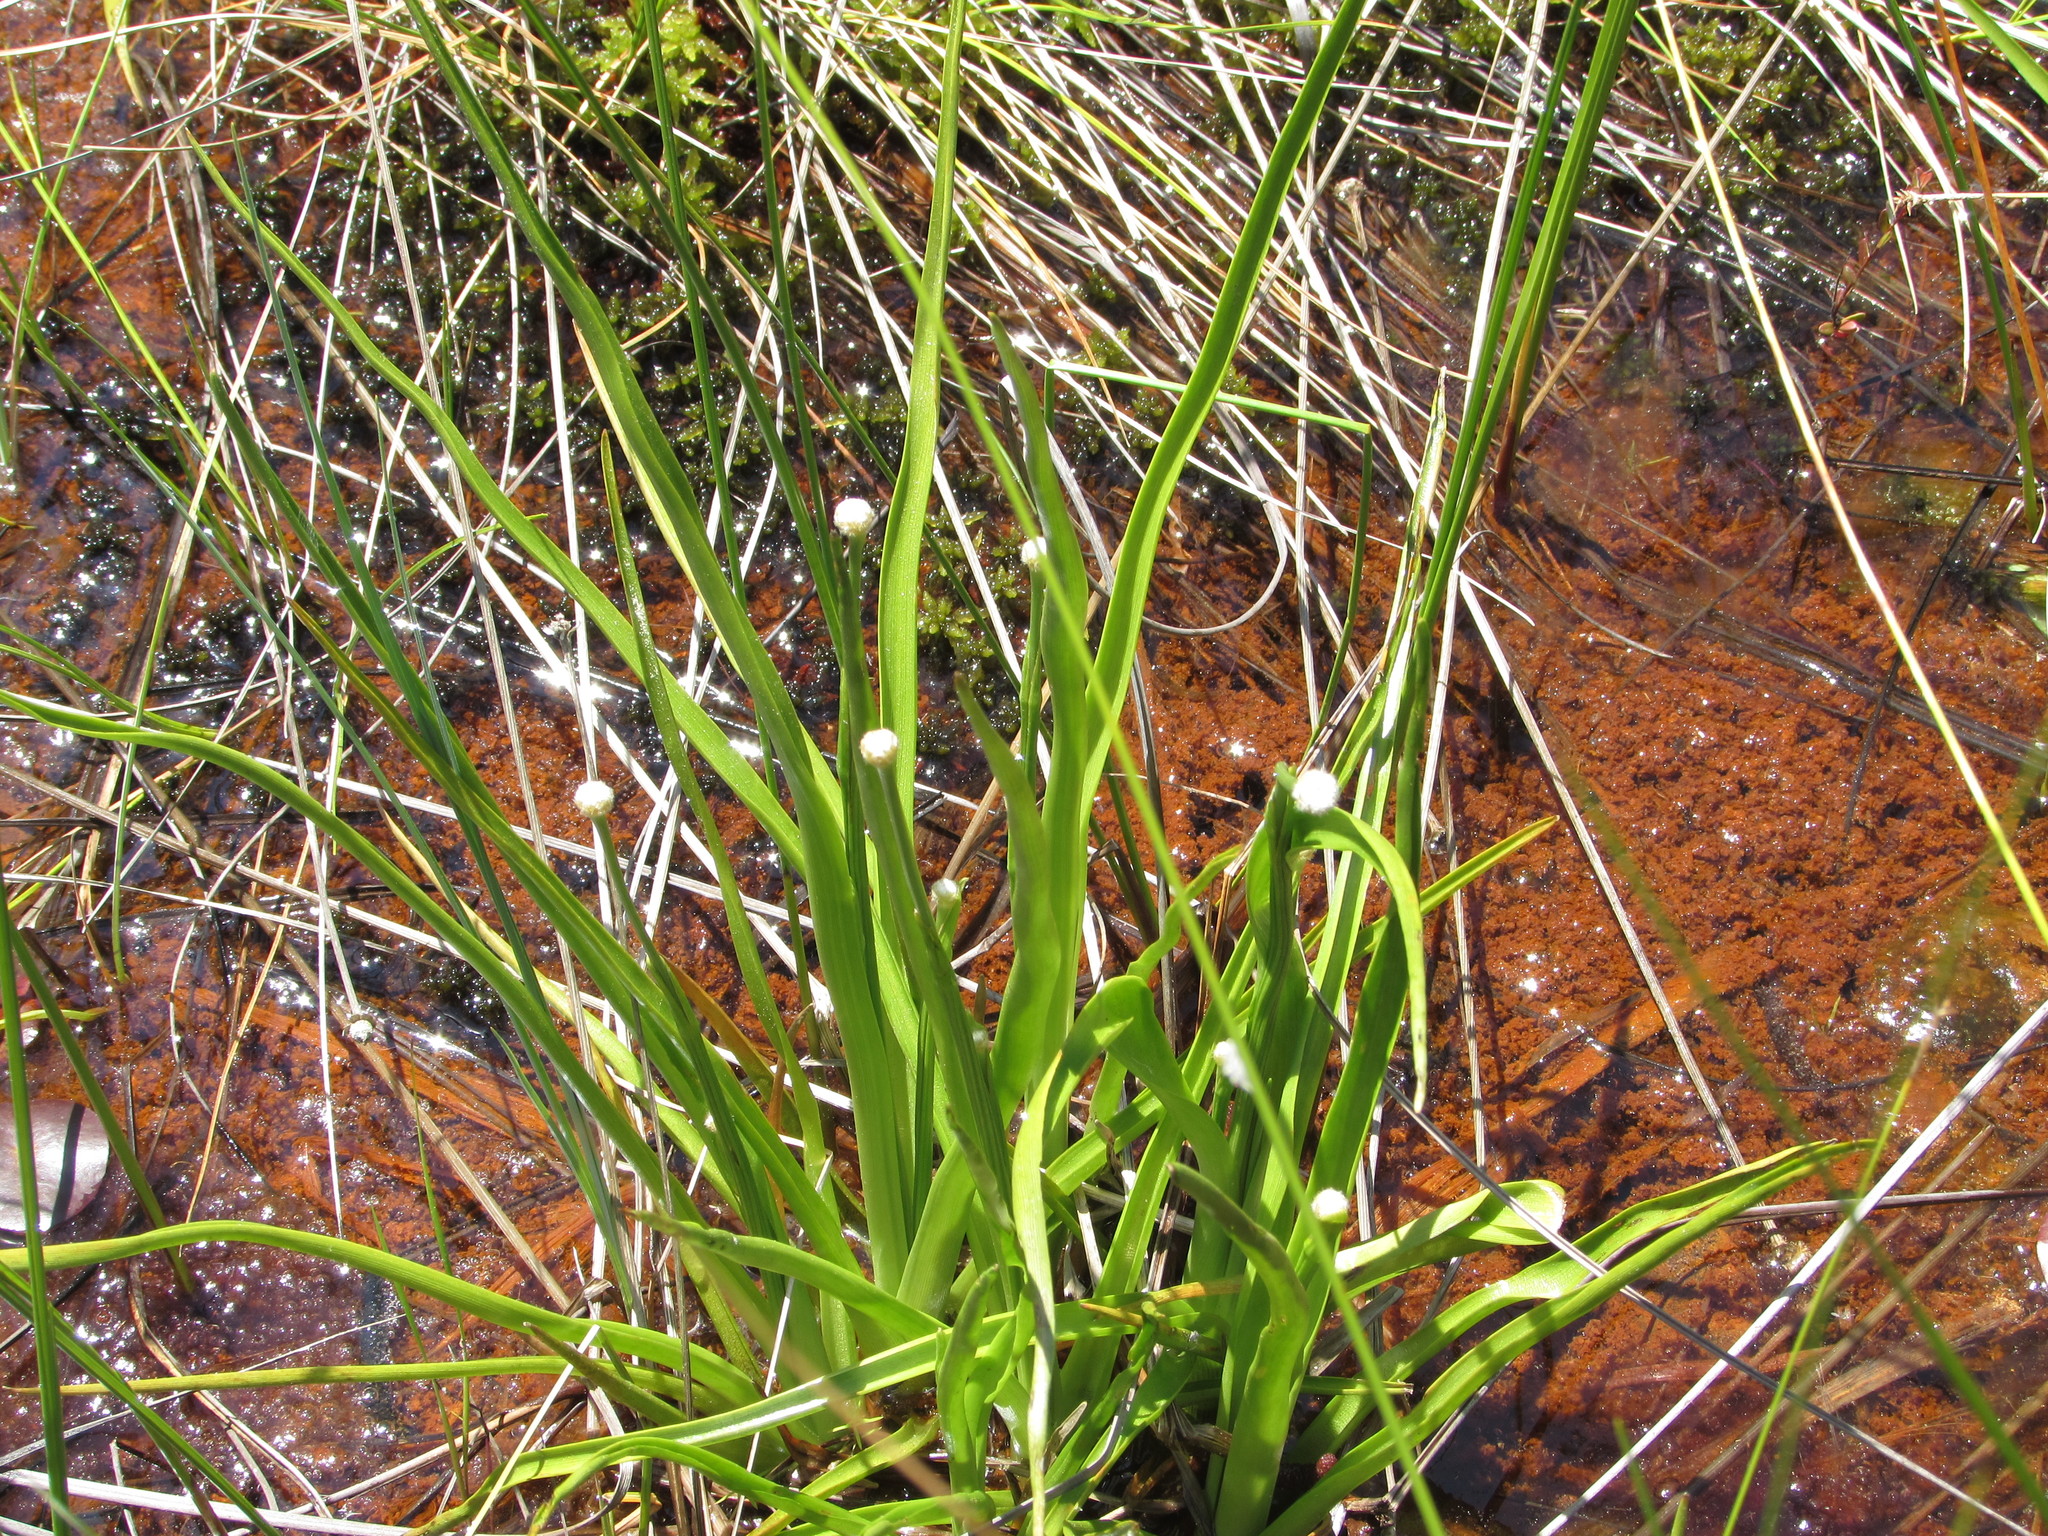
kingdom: Plantae
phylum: Tracheophyta
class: Liliopsida
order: Poales
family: Eriocaulaceae
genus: Eriocaulon
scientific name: Eriocaulon decangulare
